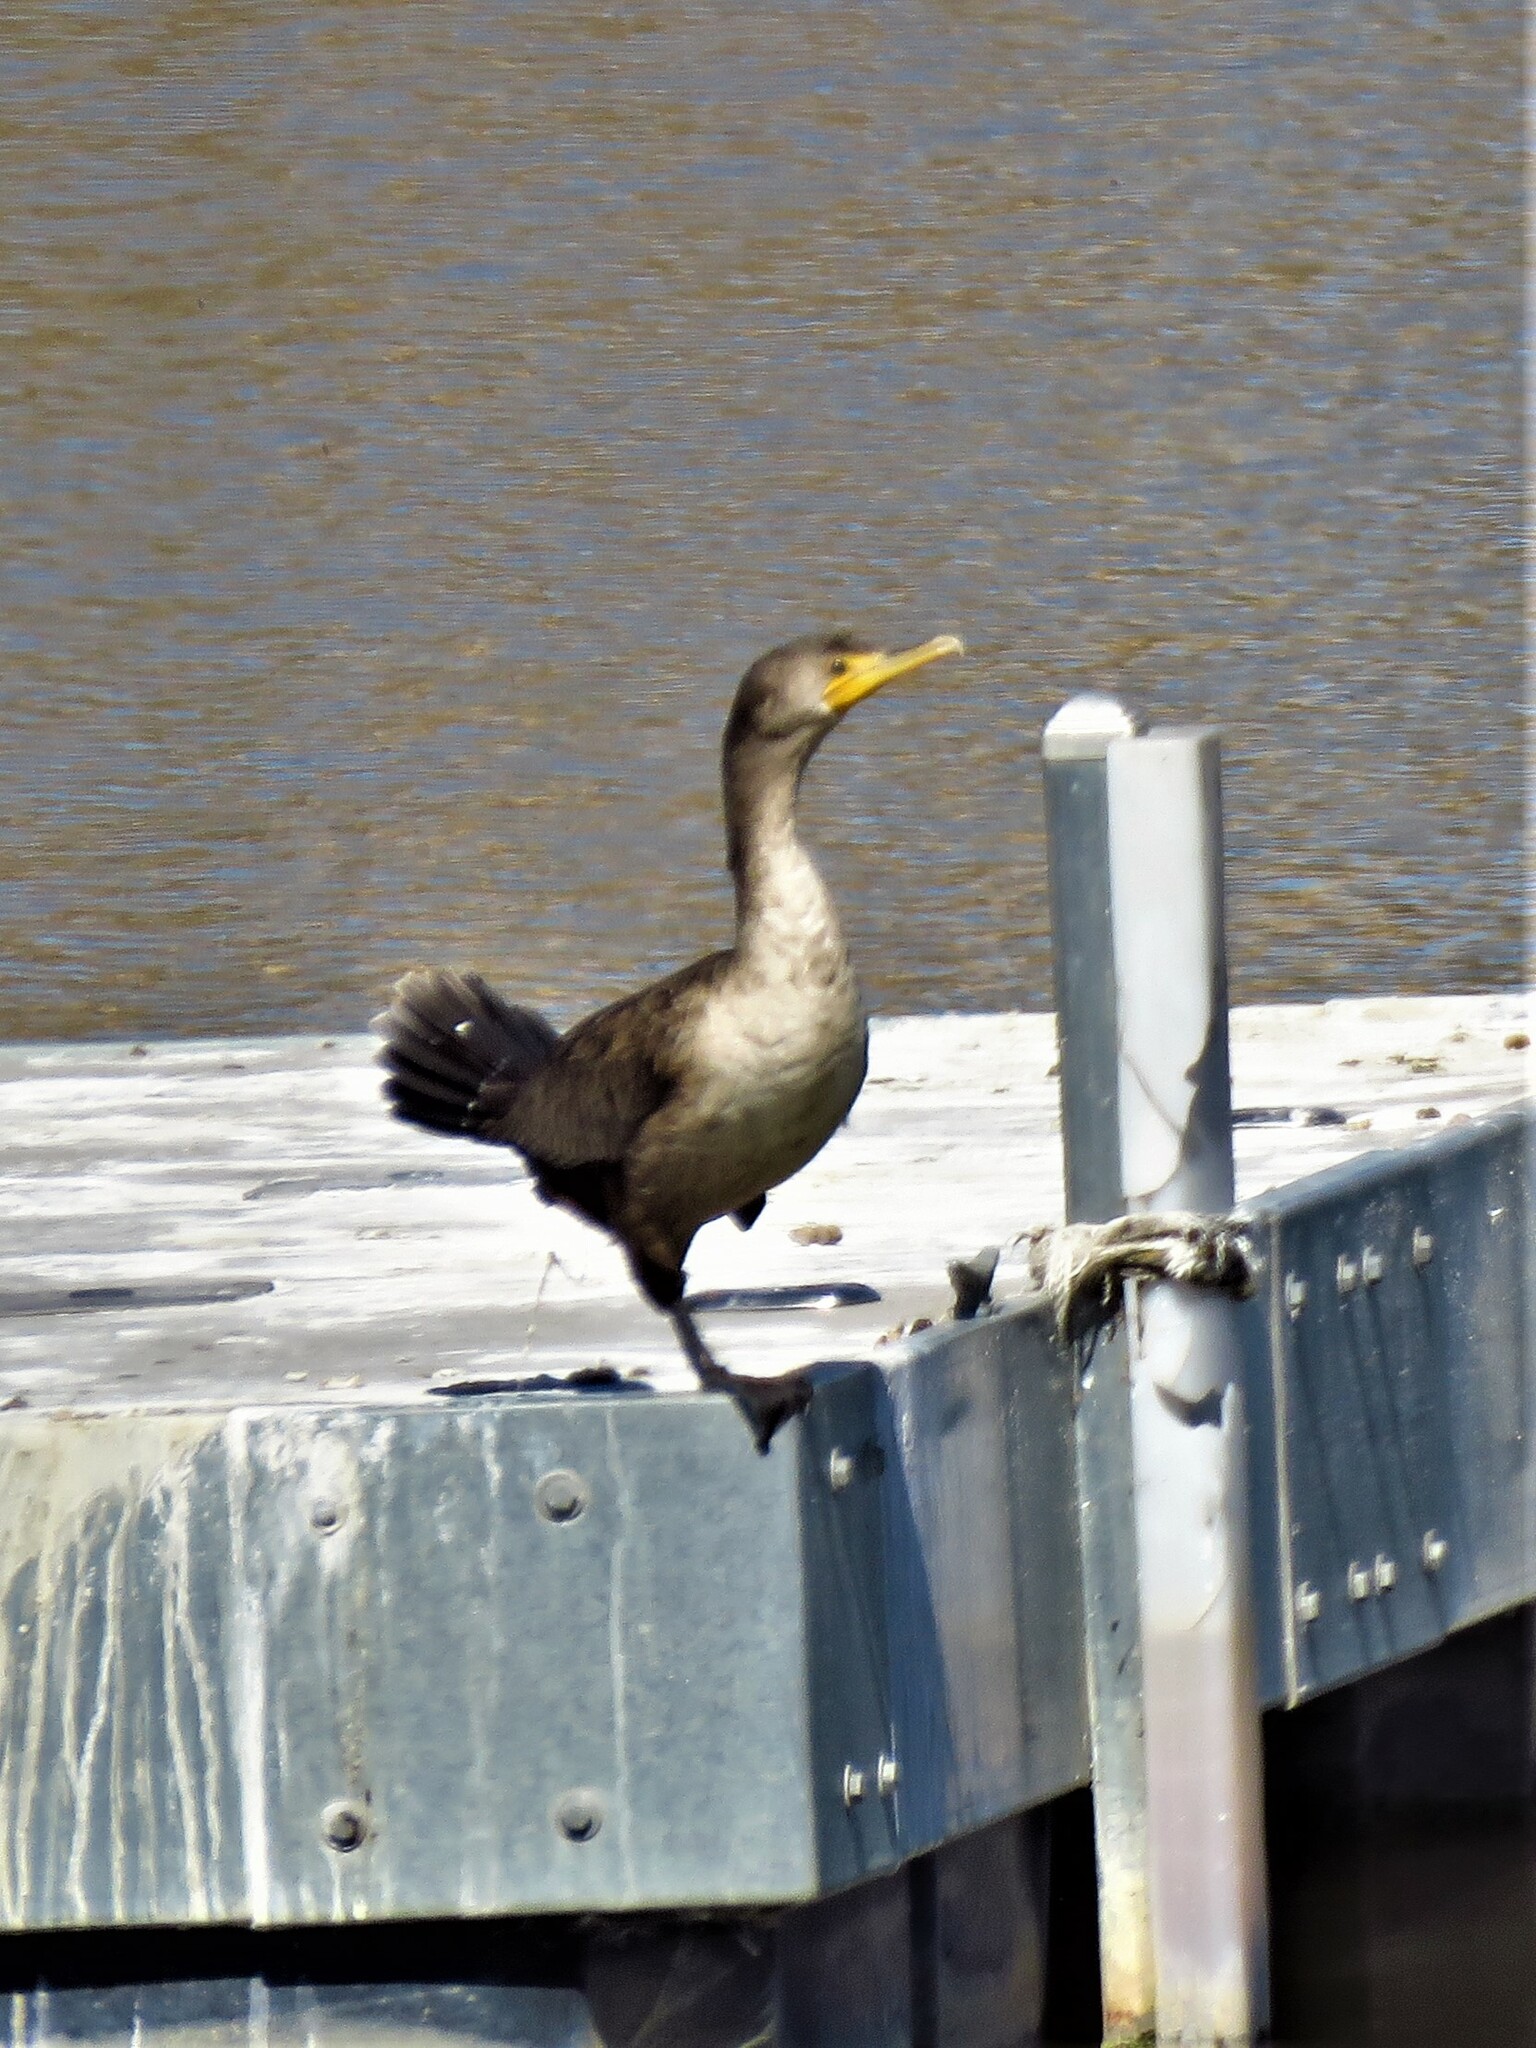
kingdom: Animalia
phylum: Chordata
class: Aves
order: Suliformes
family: Phalacrocoracidae
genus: Phalacrocorax
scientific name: Phalacrocorax auritus
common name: Double-crested cormorant
